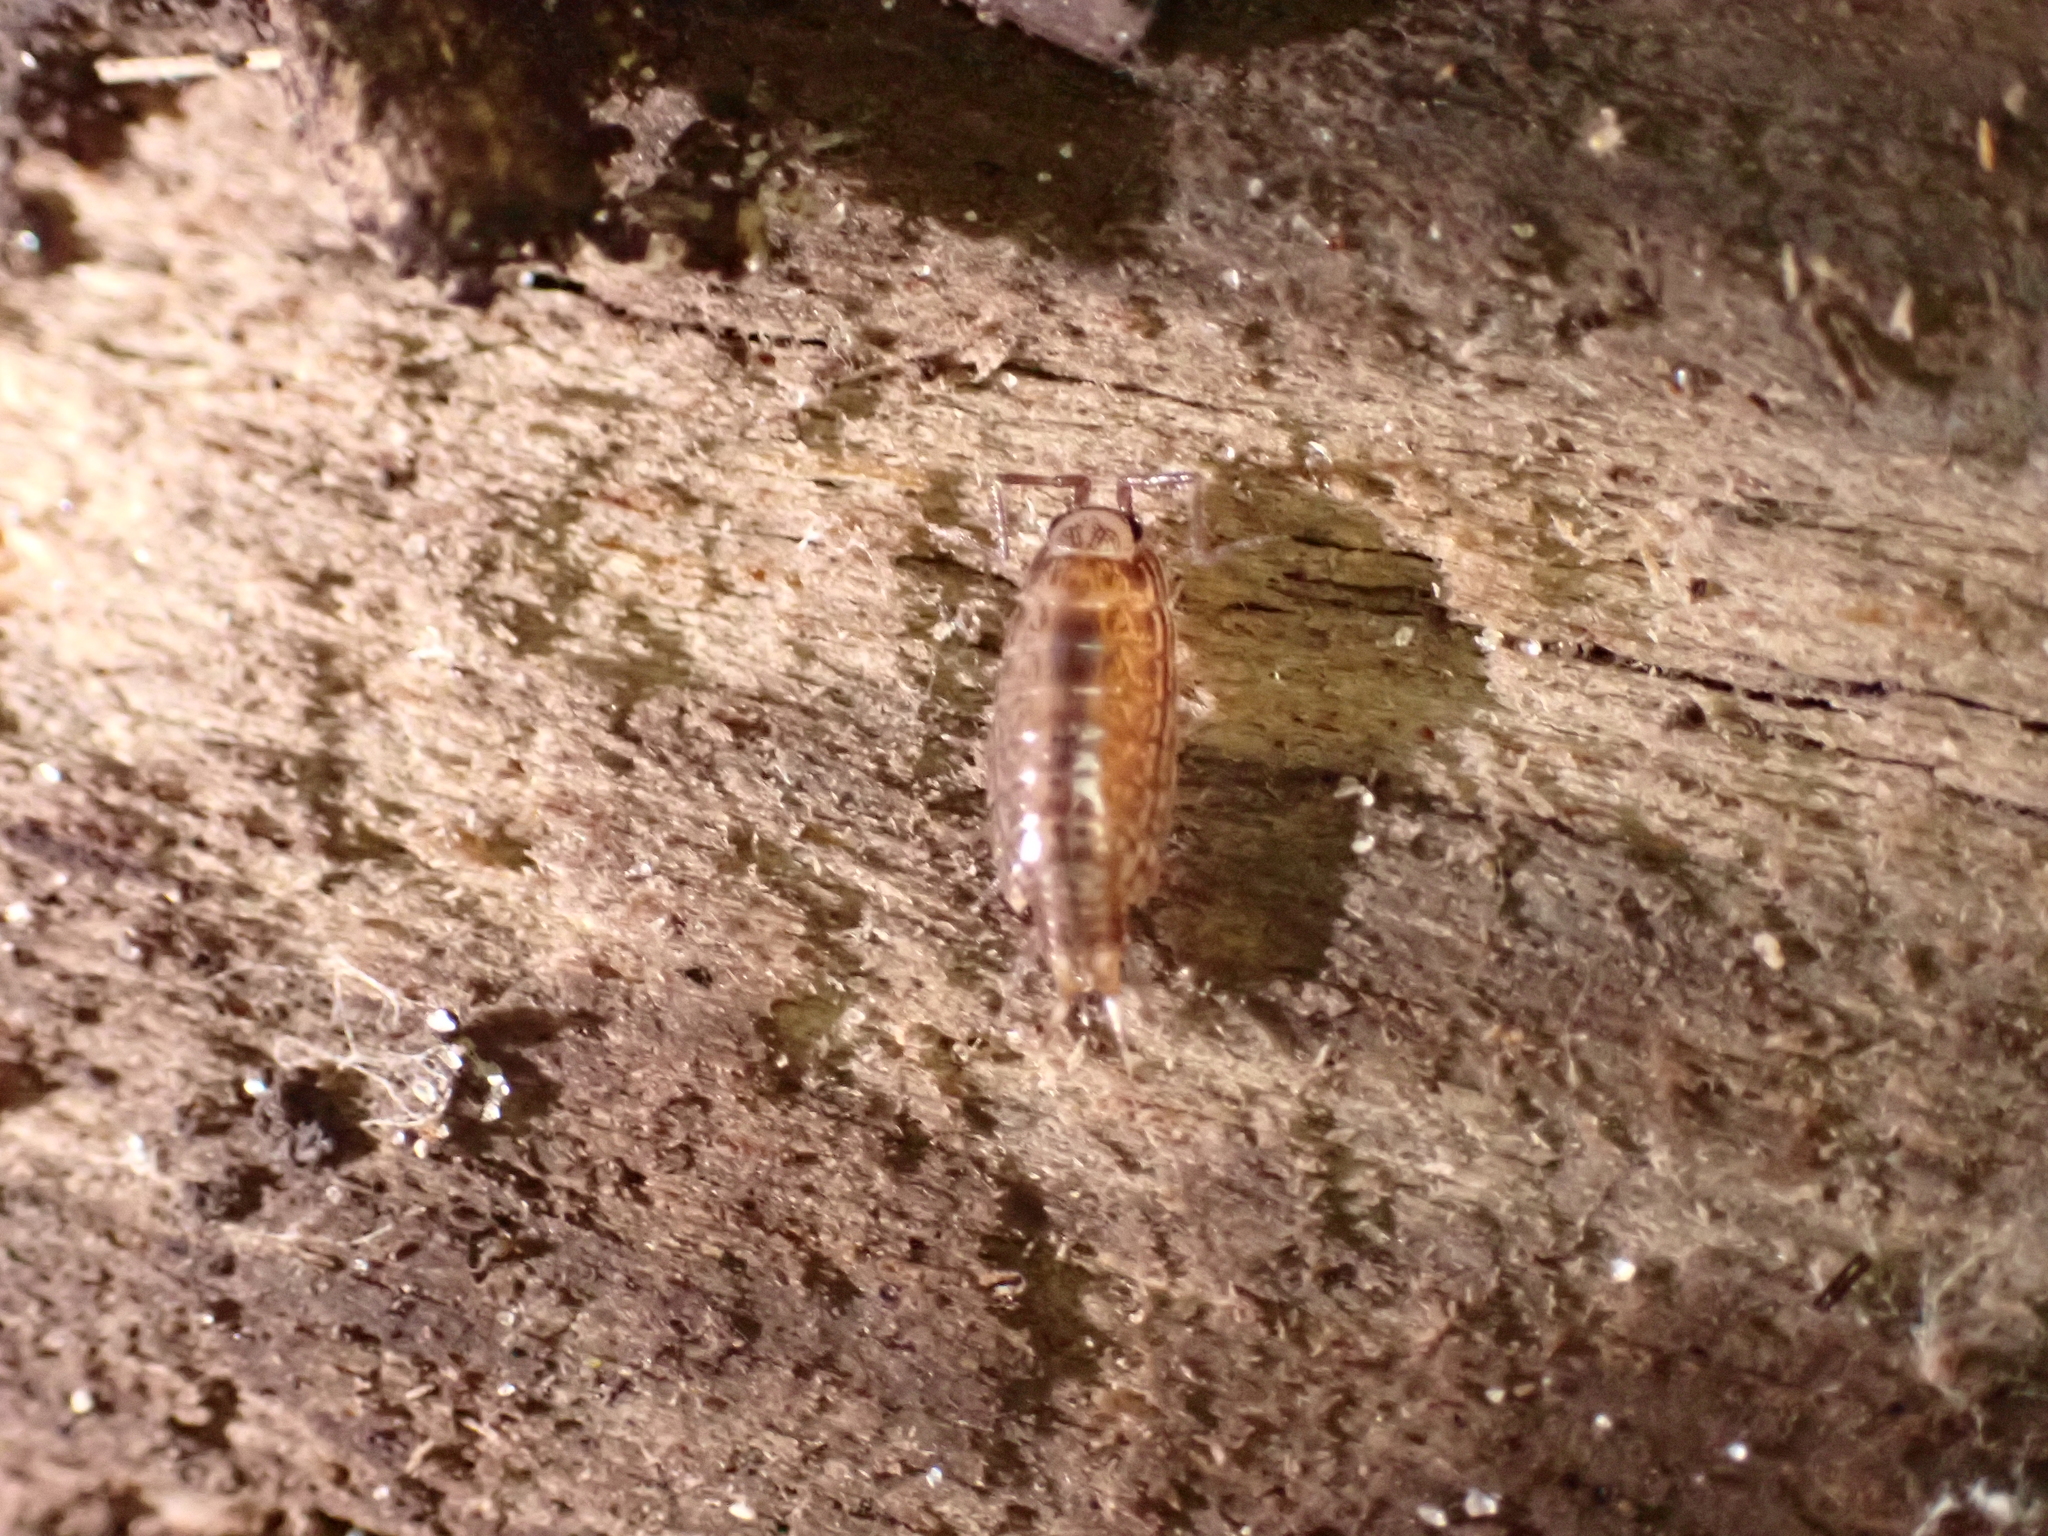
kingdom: Animalia
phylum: Arthropoda
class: Malacostraca
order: Isopoda
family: Philosciidae
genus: Atlantoscia
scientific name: Atlantoscia floridana
